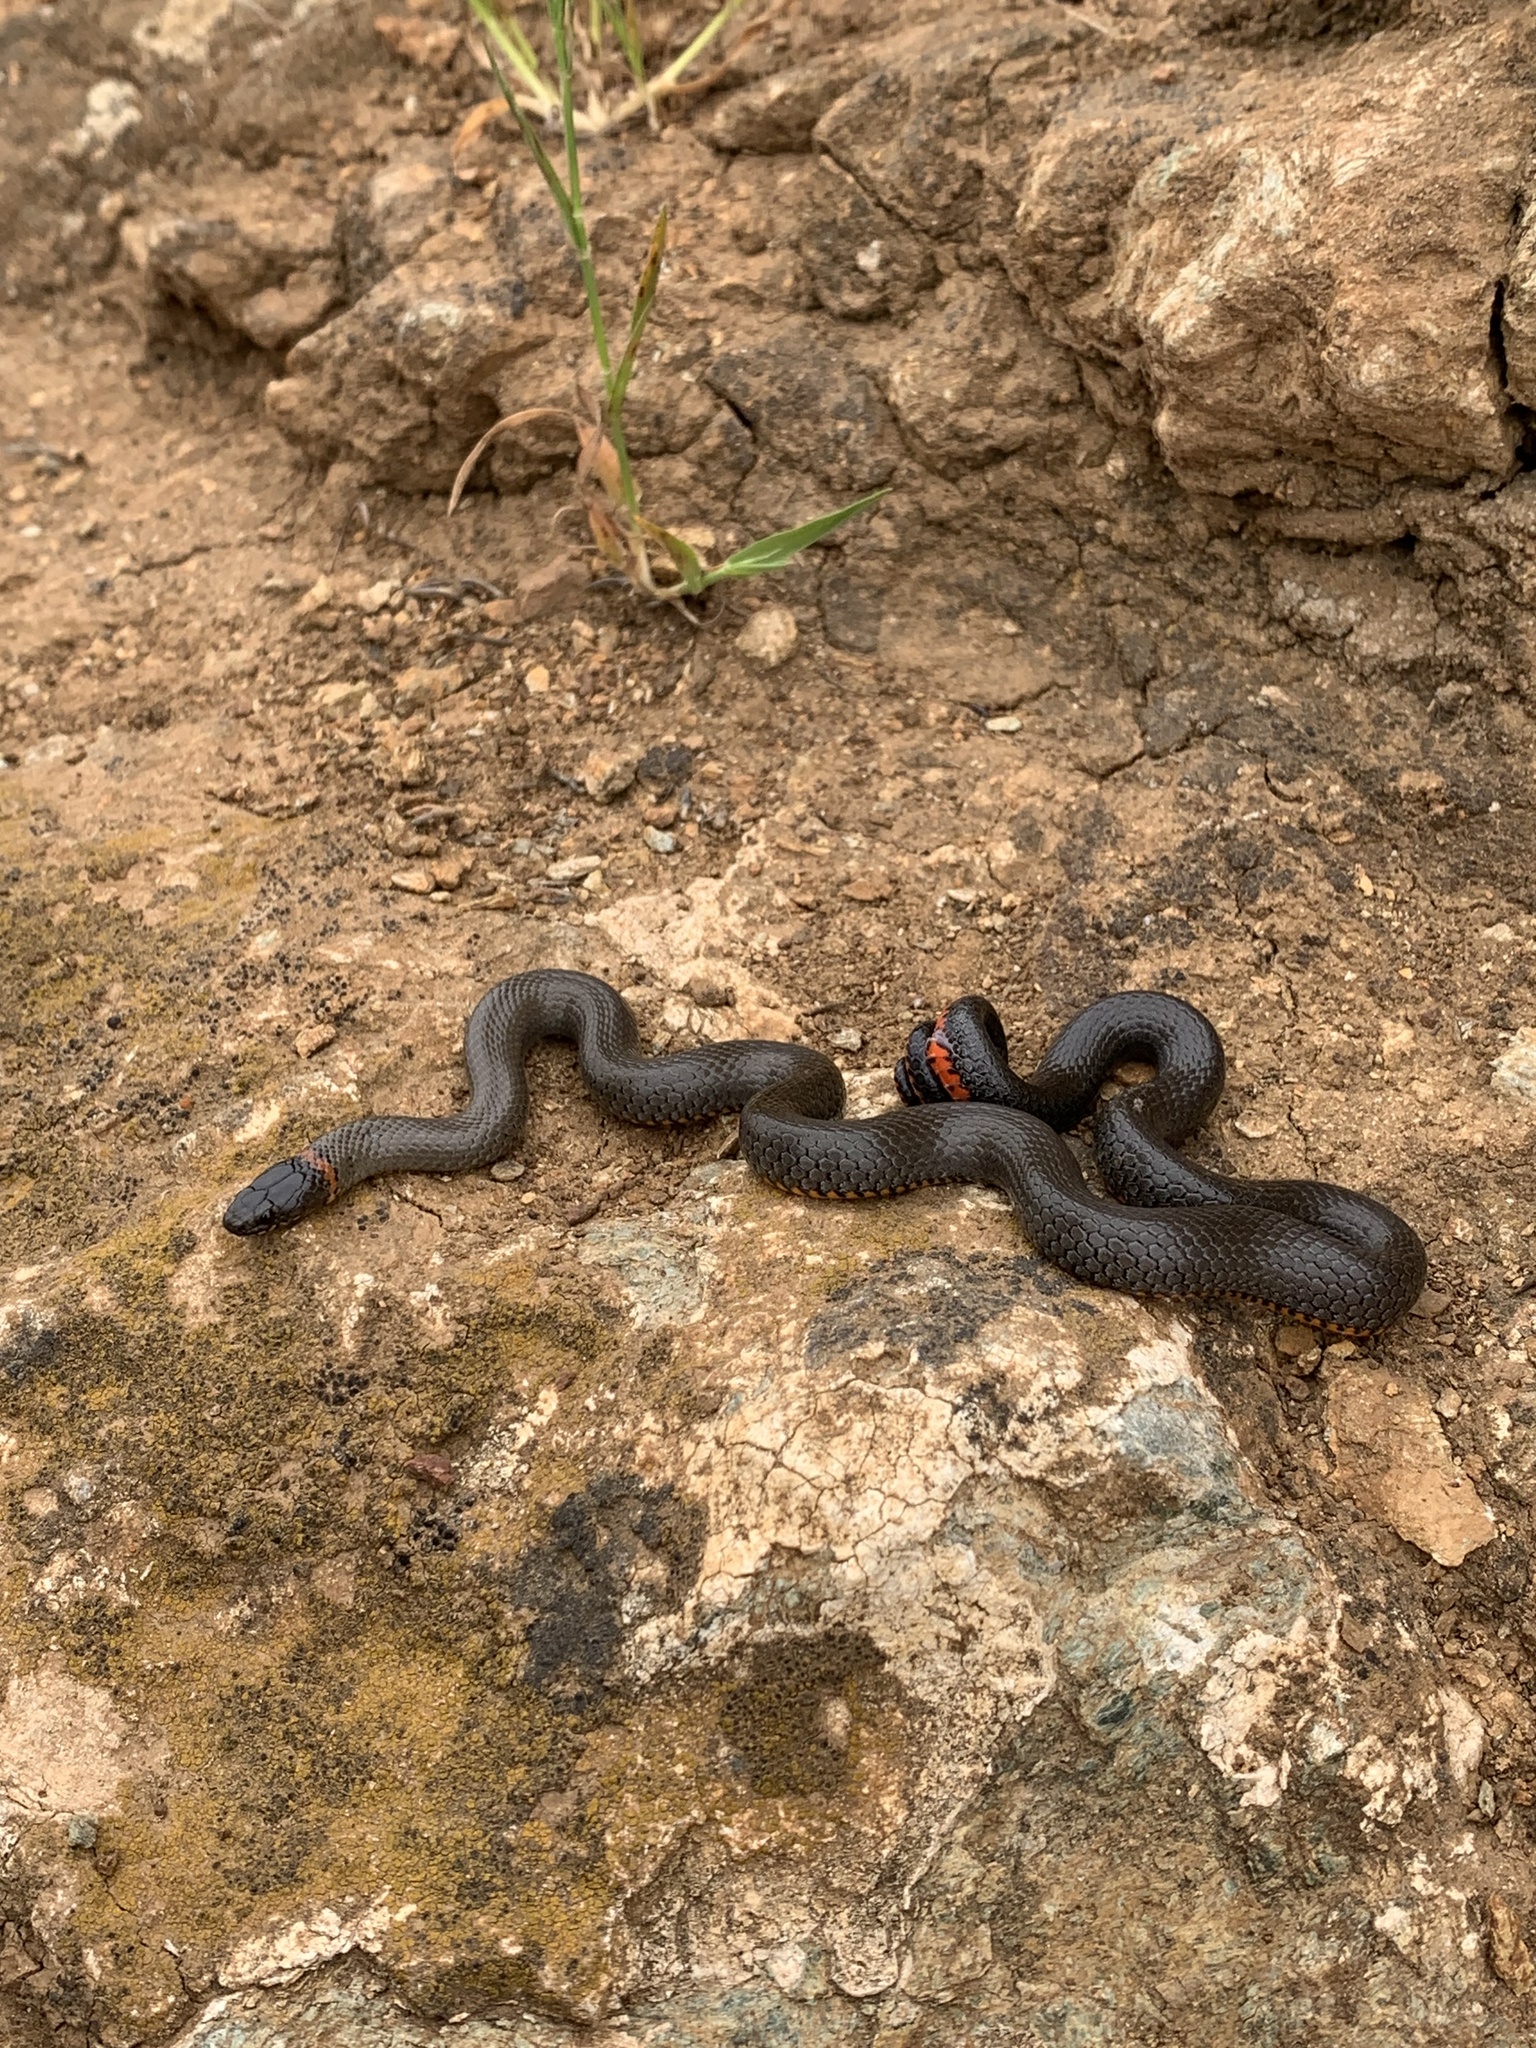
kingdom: Animalia
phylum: Chordata
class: Squamata
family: Colubridae
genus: Diadophis
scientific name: Diadophis punctatus
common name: Ringneck snake
